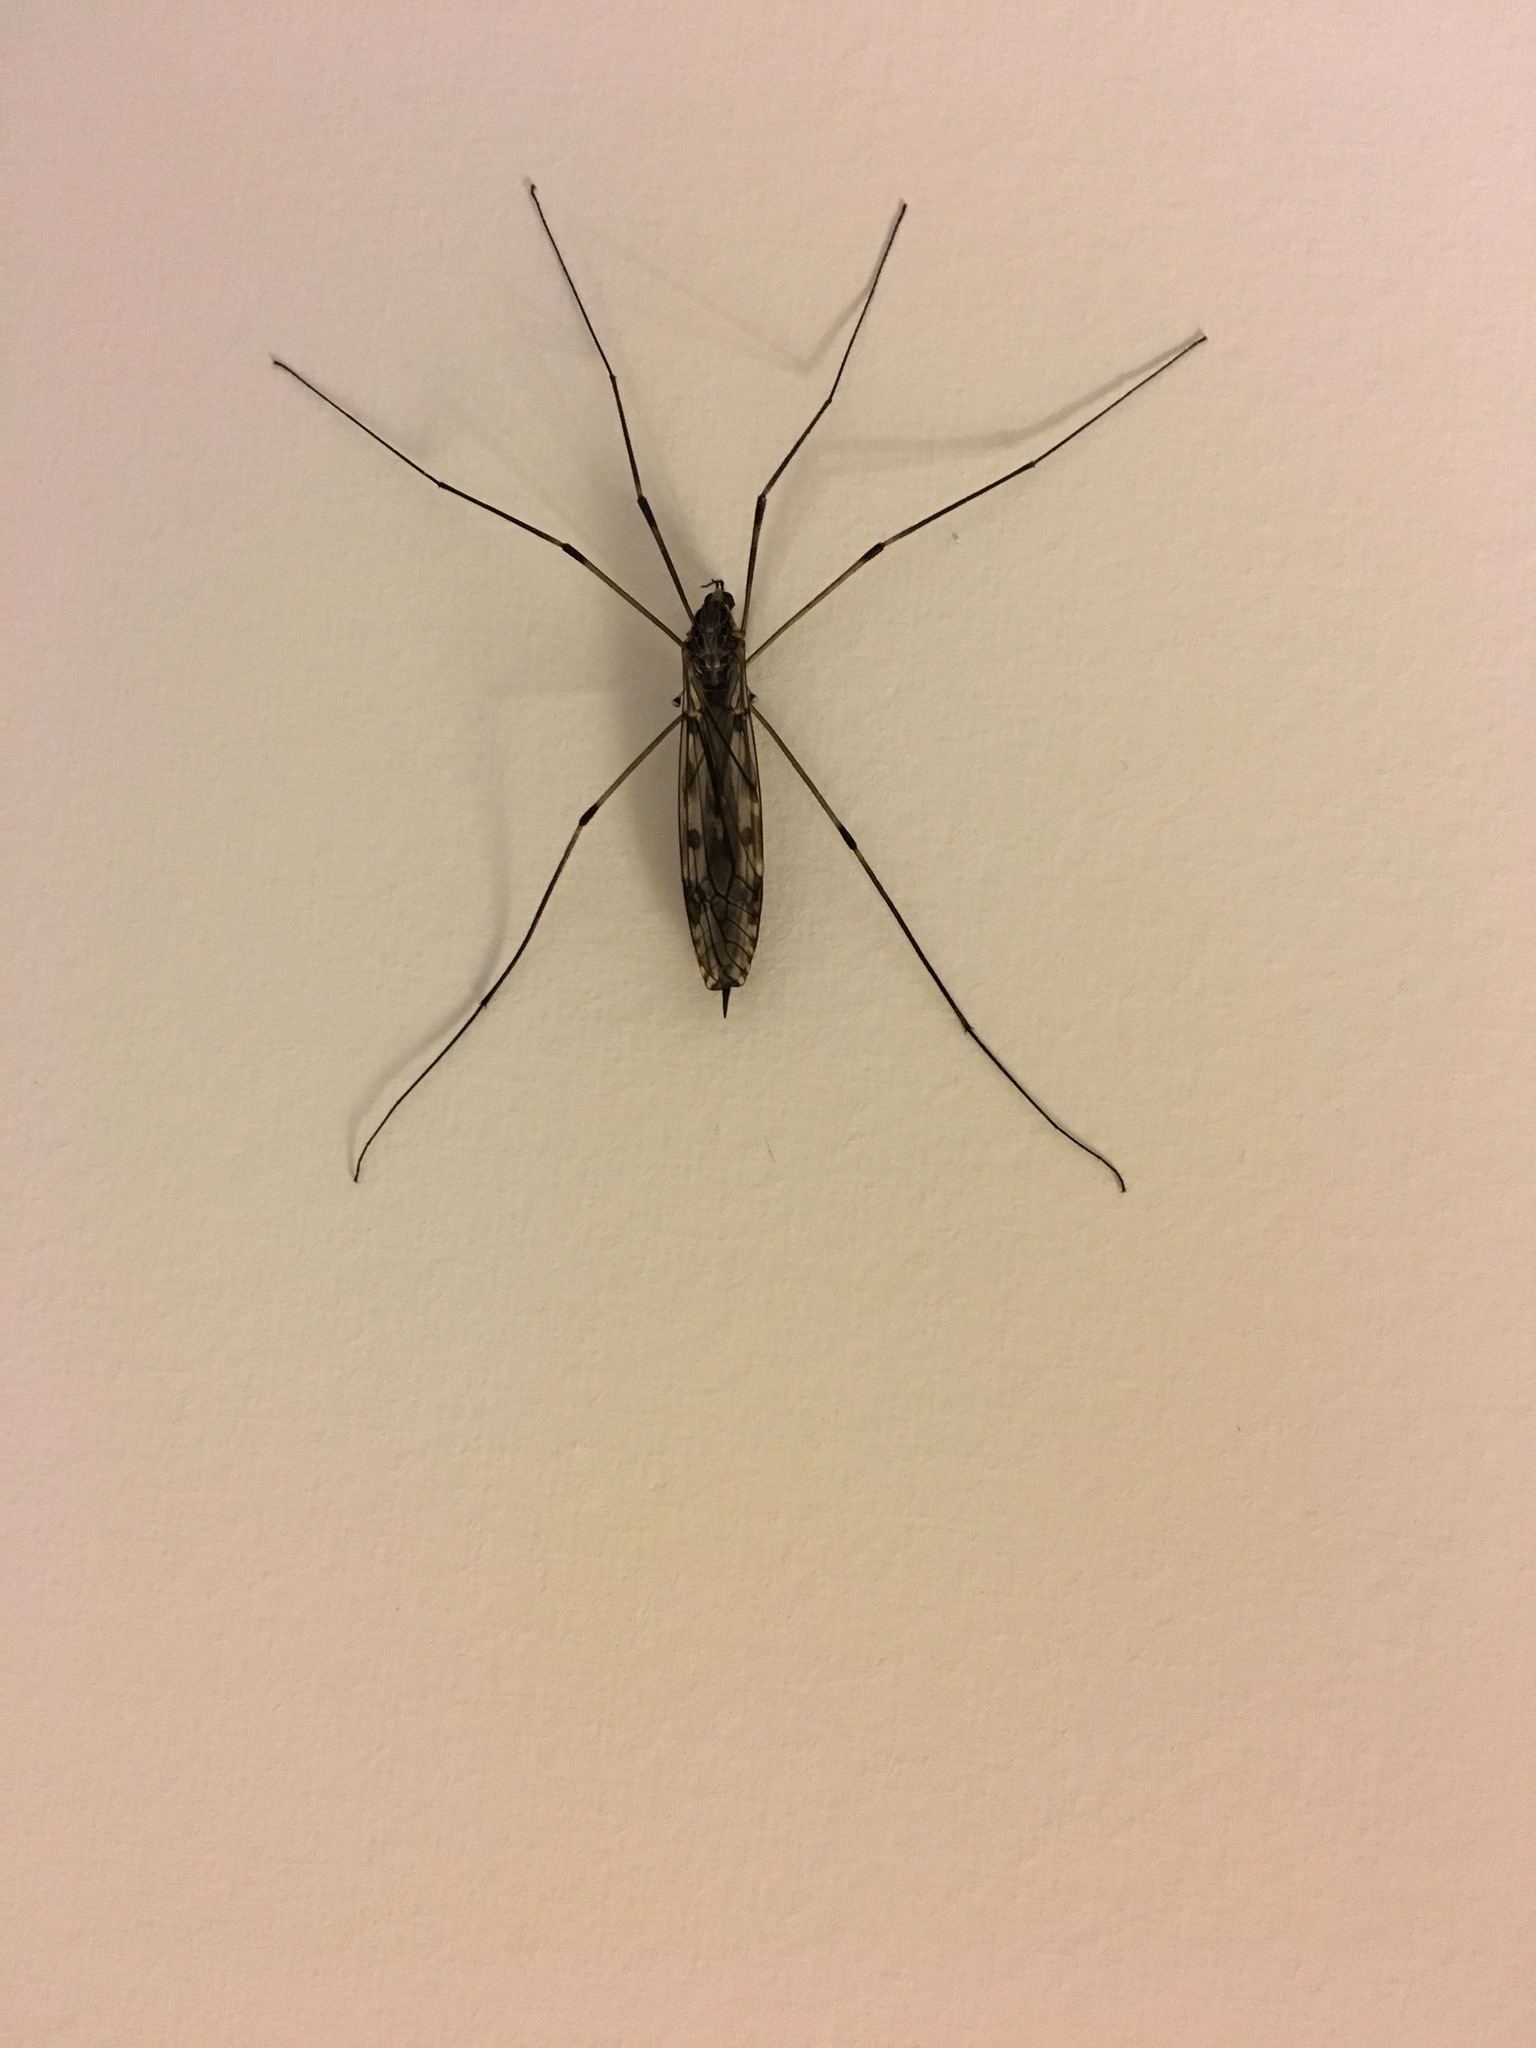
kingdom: Animalia
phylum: Arthropoda
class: Insecta
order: Diptera
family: Tipulidae
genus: Tipula
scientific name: Tipula abdominalis
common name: Giant crane fly
